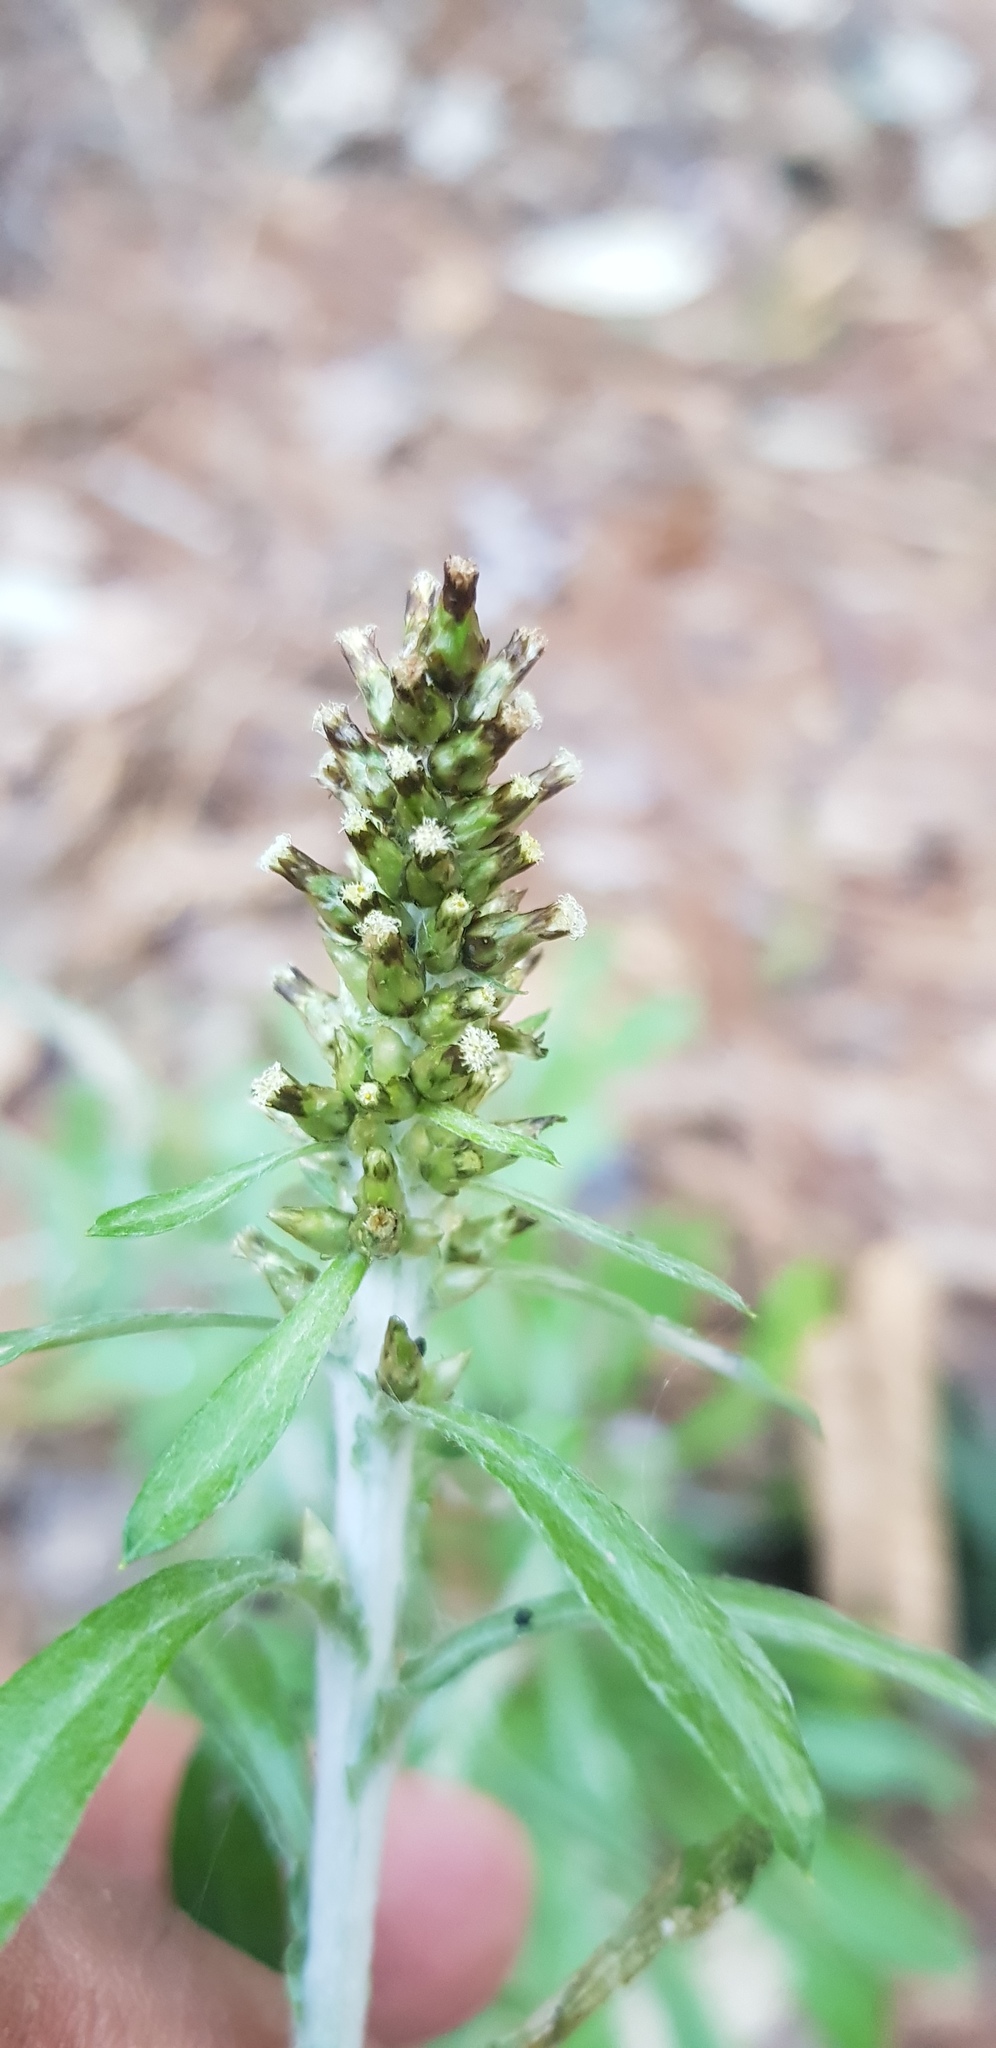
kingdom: Plantae
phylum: Tracheophyta
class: Magnoliopsida
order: Asterales
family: Asteraceae
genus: Gamochaeta
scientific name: Gamochaeta americana
